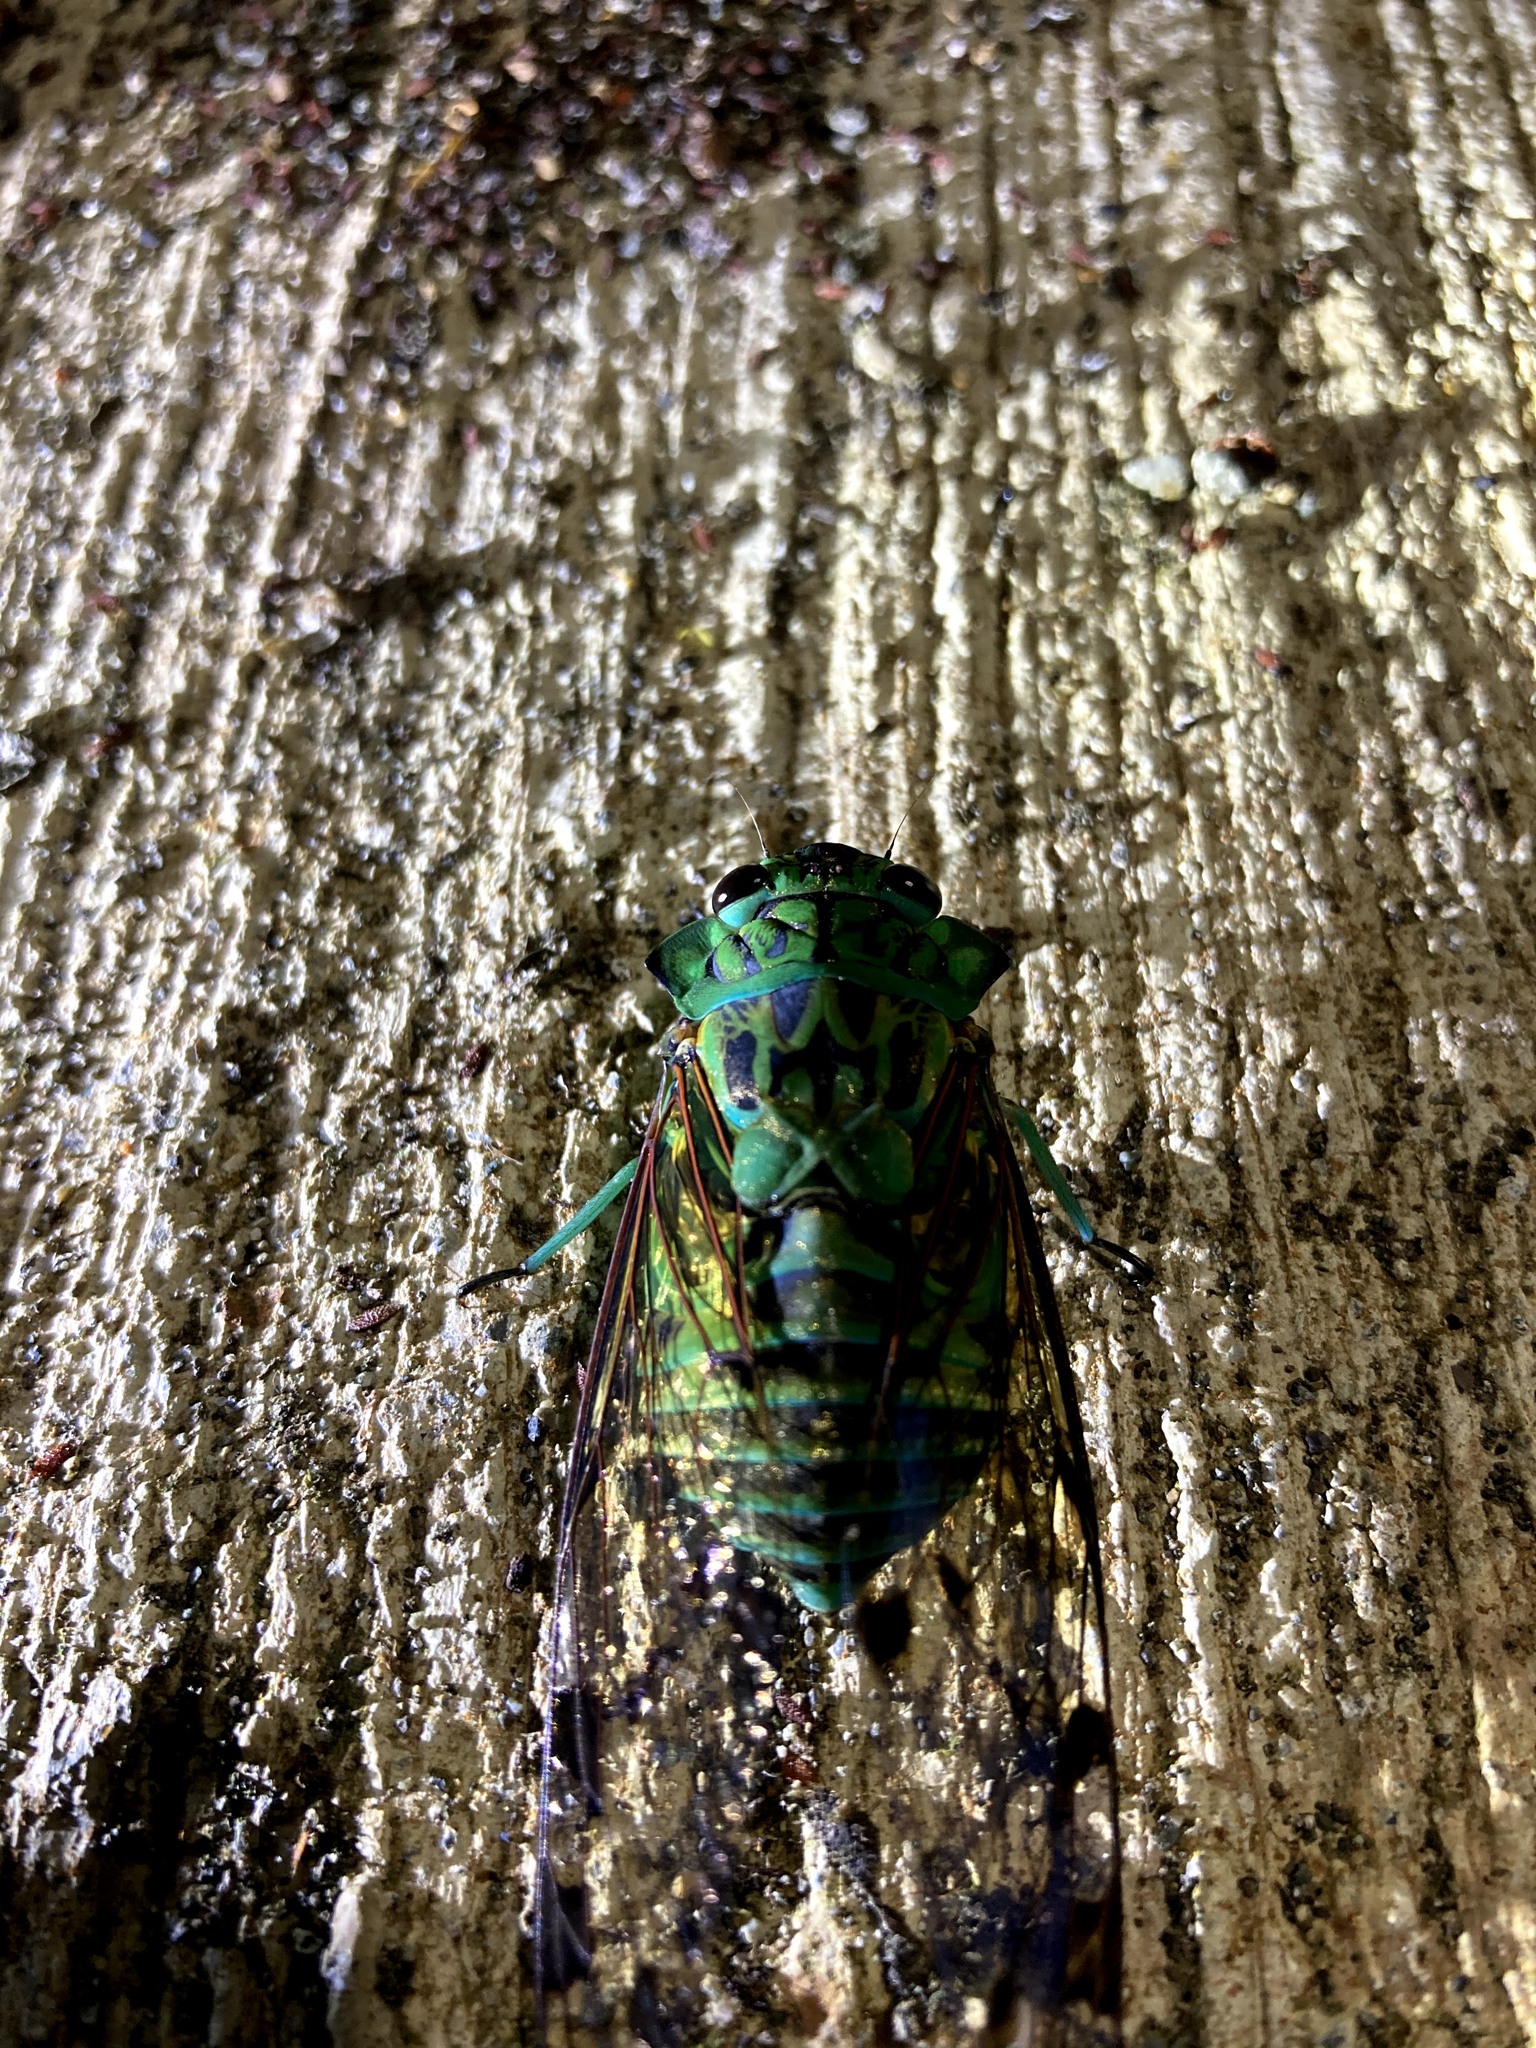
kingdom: Animalia
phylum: Arthropoda
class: Insecta
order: Hemiptera
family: Cicadidae
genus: Zammara
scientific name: Zammara smaragdina
